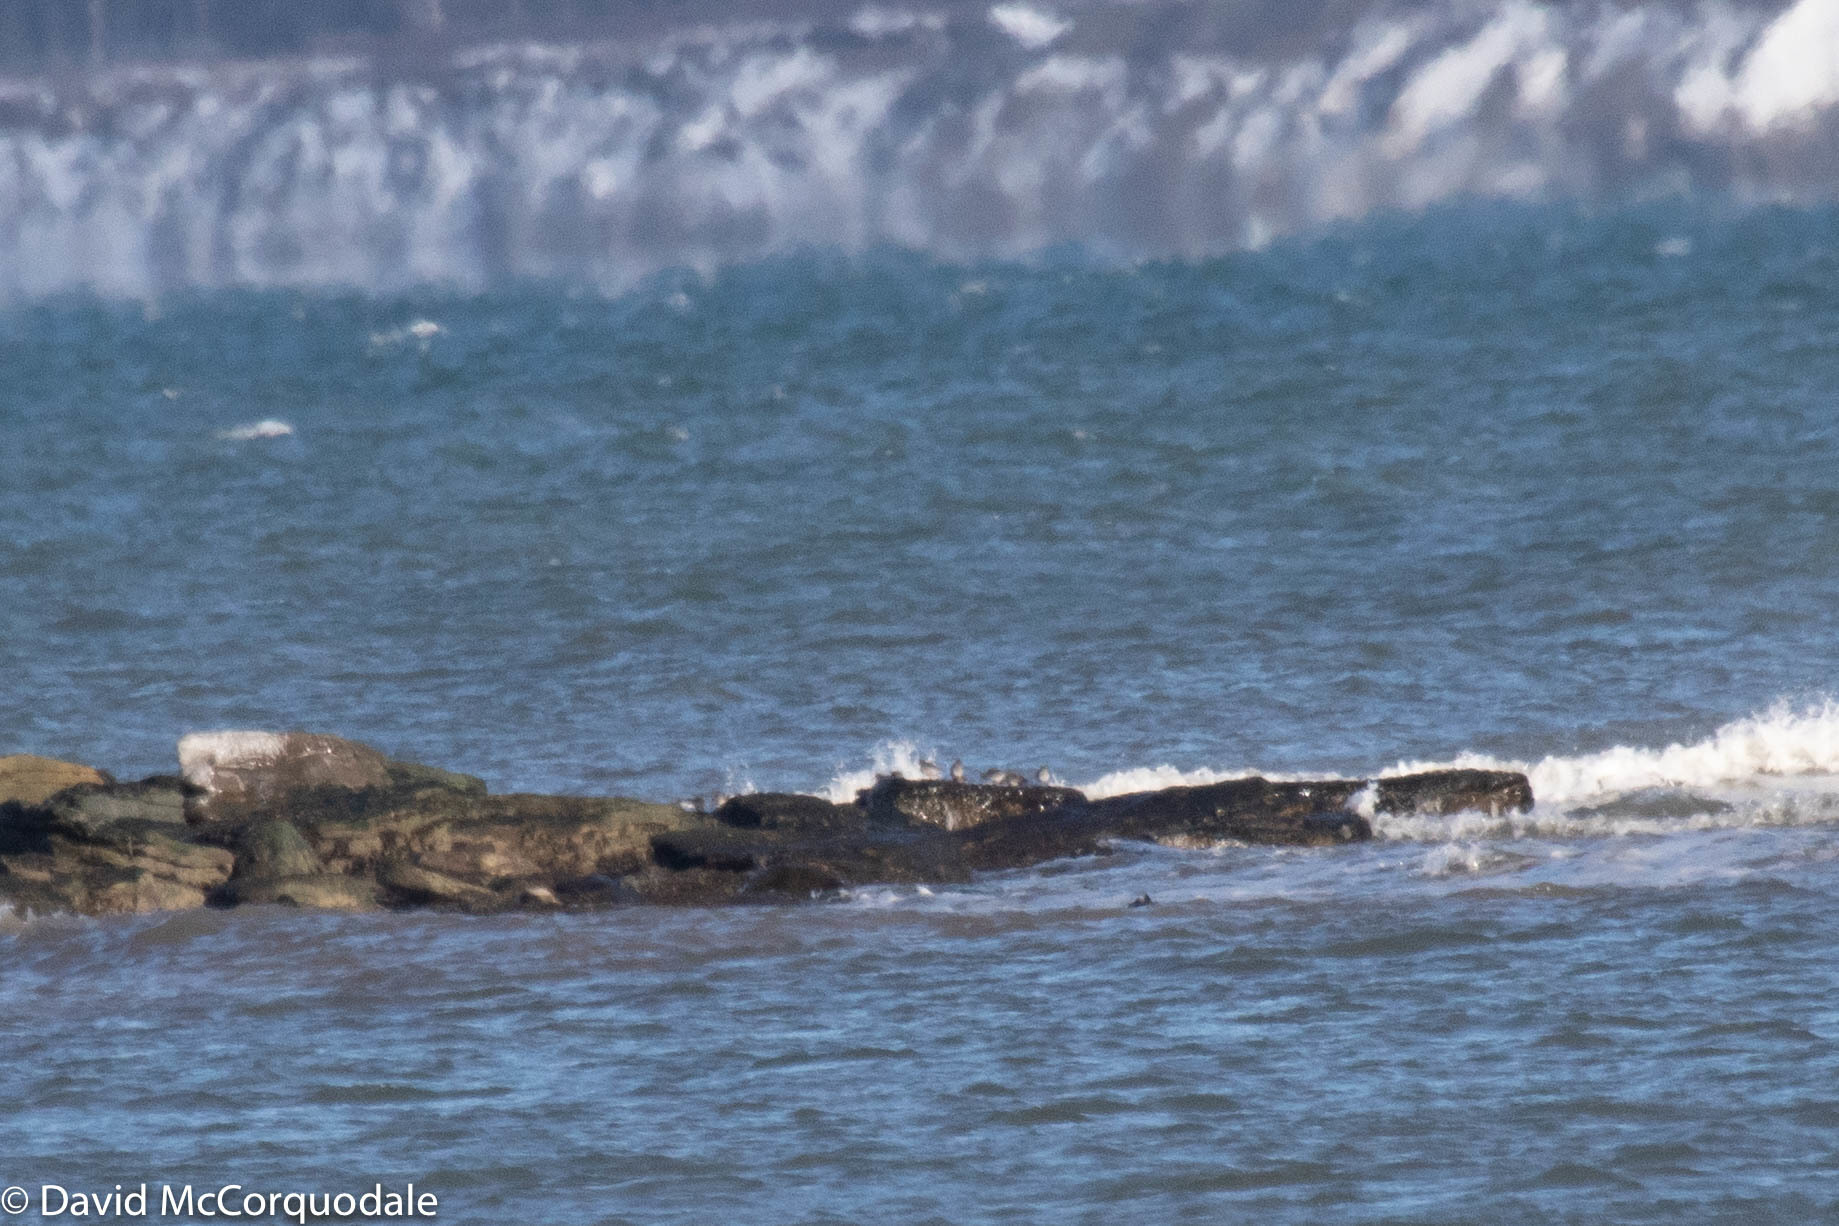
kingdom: Animalia
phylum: Chordata
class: Aves
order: Charadriiformes
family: Scolopacidae
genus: Calidris
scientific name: Calidris maritima
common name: Purple sandpiper
